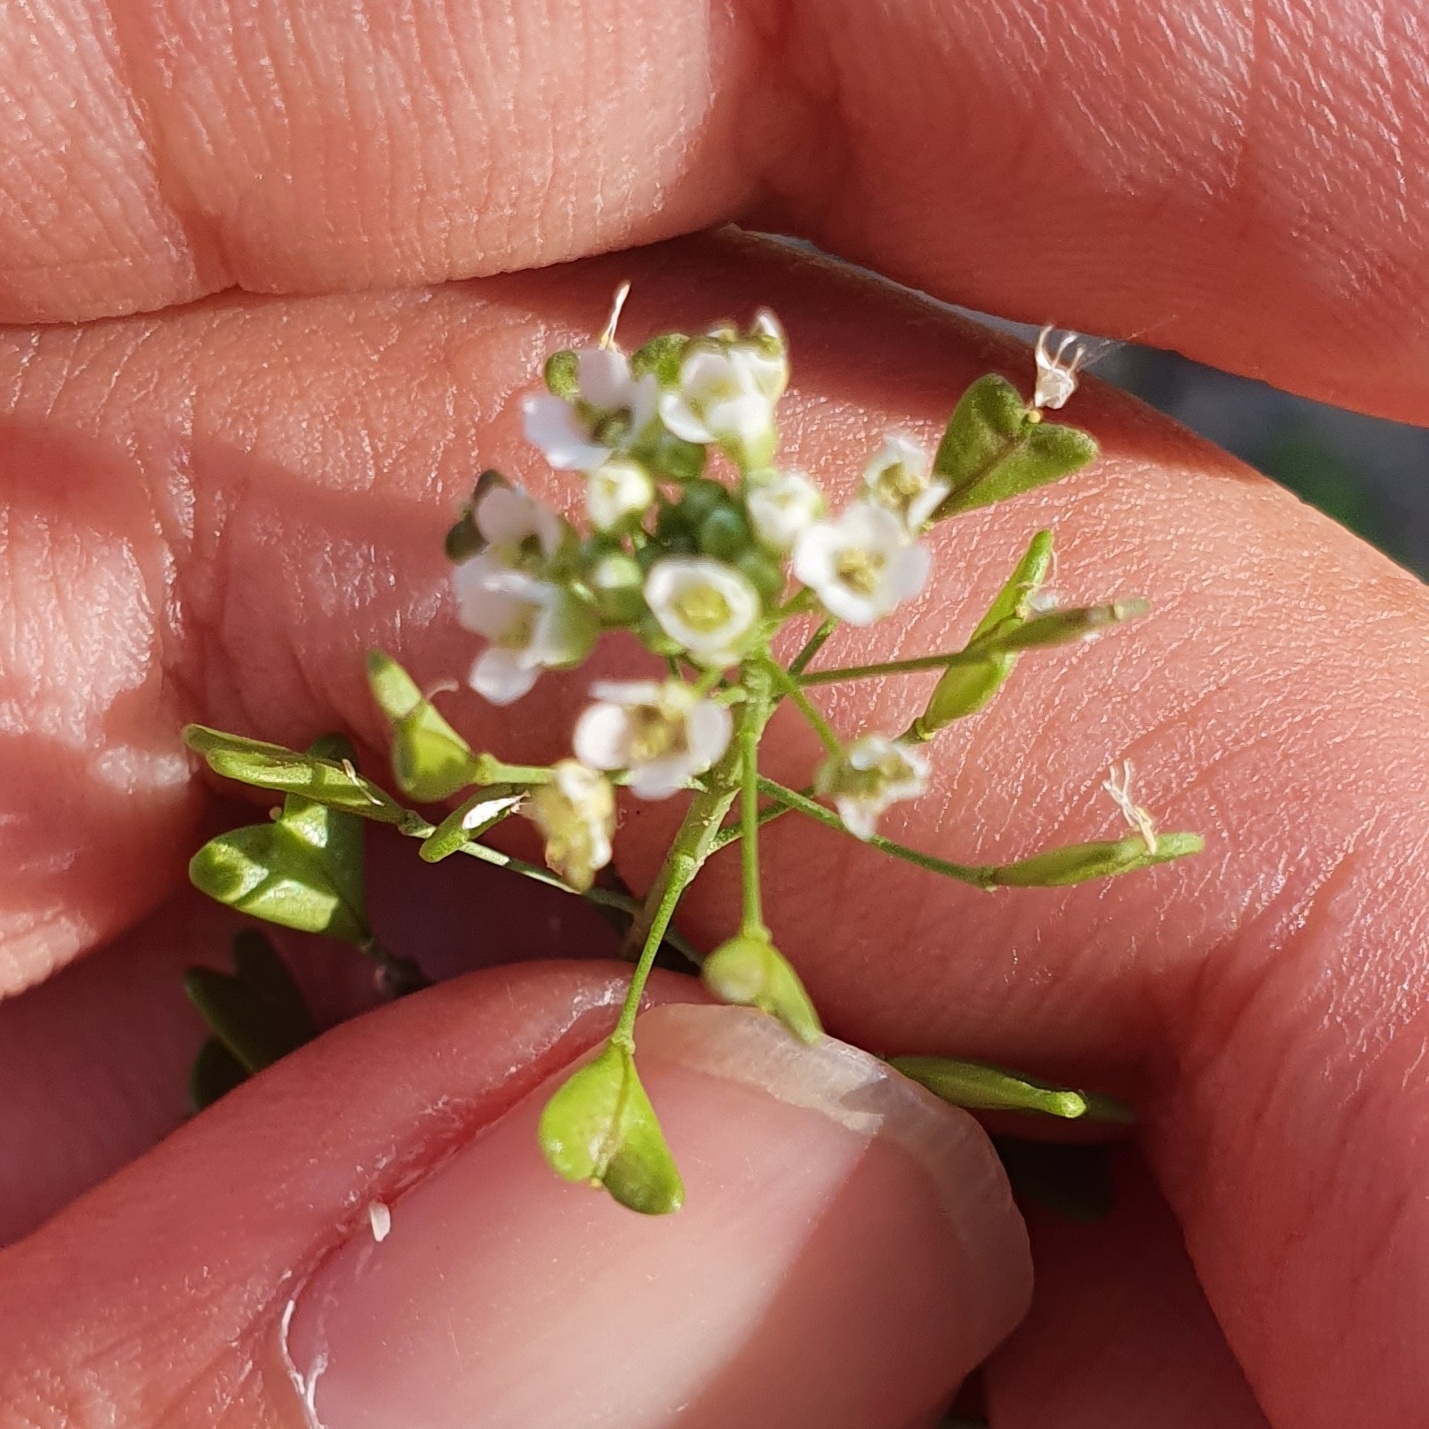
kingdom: Plantae
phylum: Tracheophyta
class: Magnoliopsida
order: Brassicales
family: Brassicaceae
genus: Capsella
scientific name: Capsella bursa-pastoris
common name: Shepherd's purse
